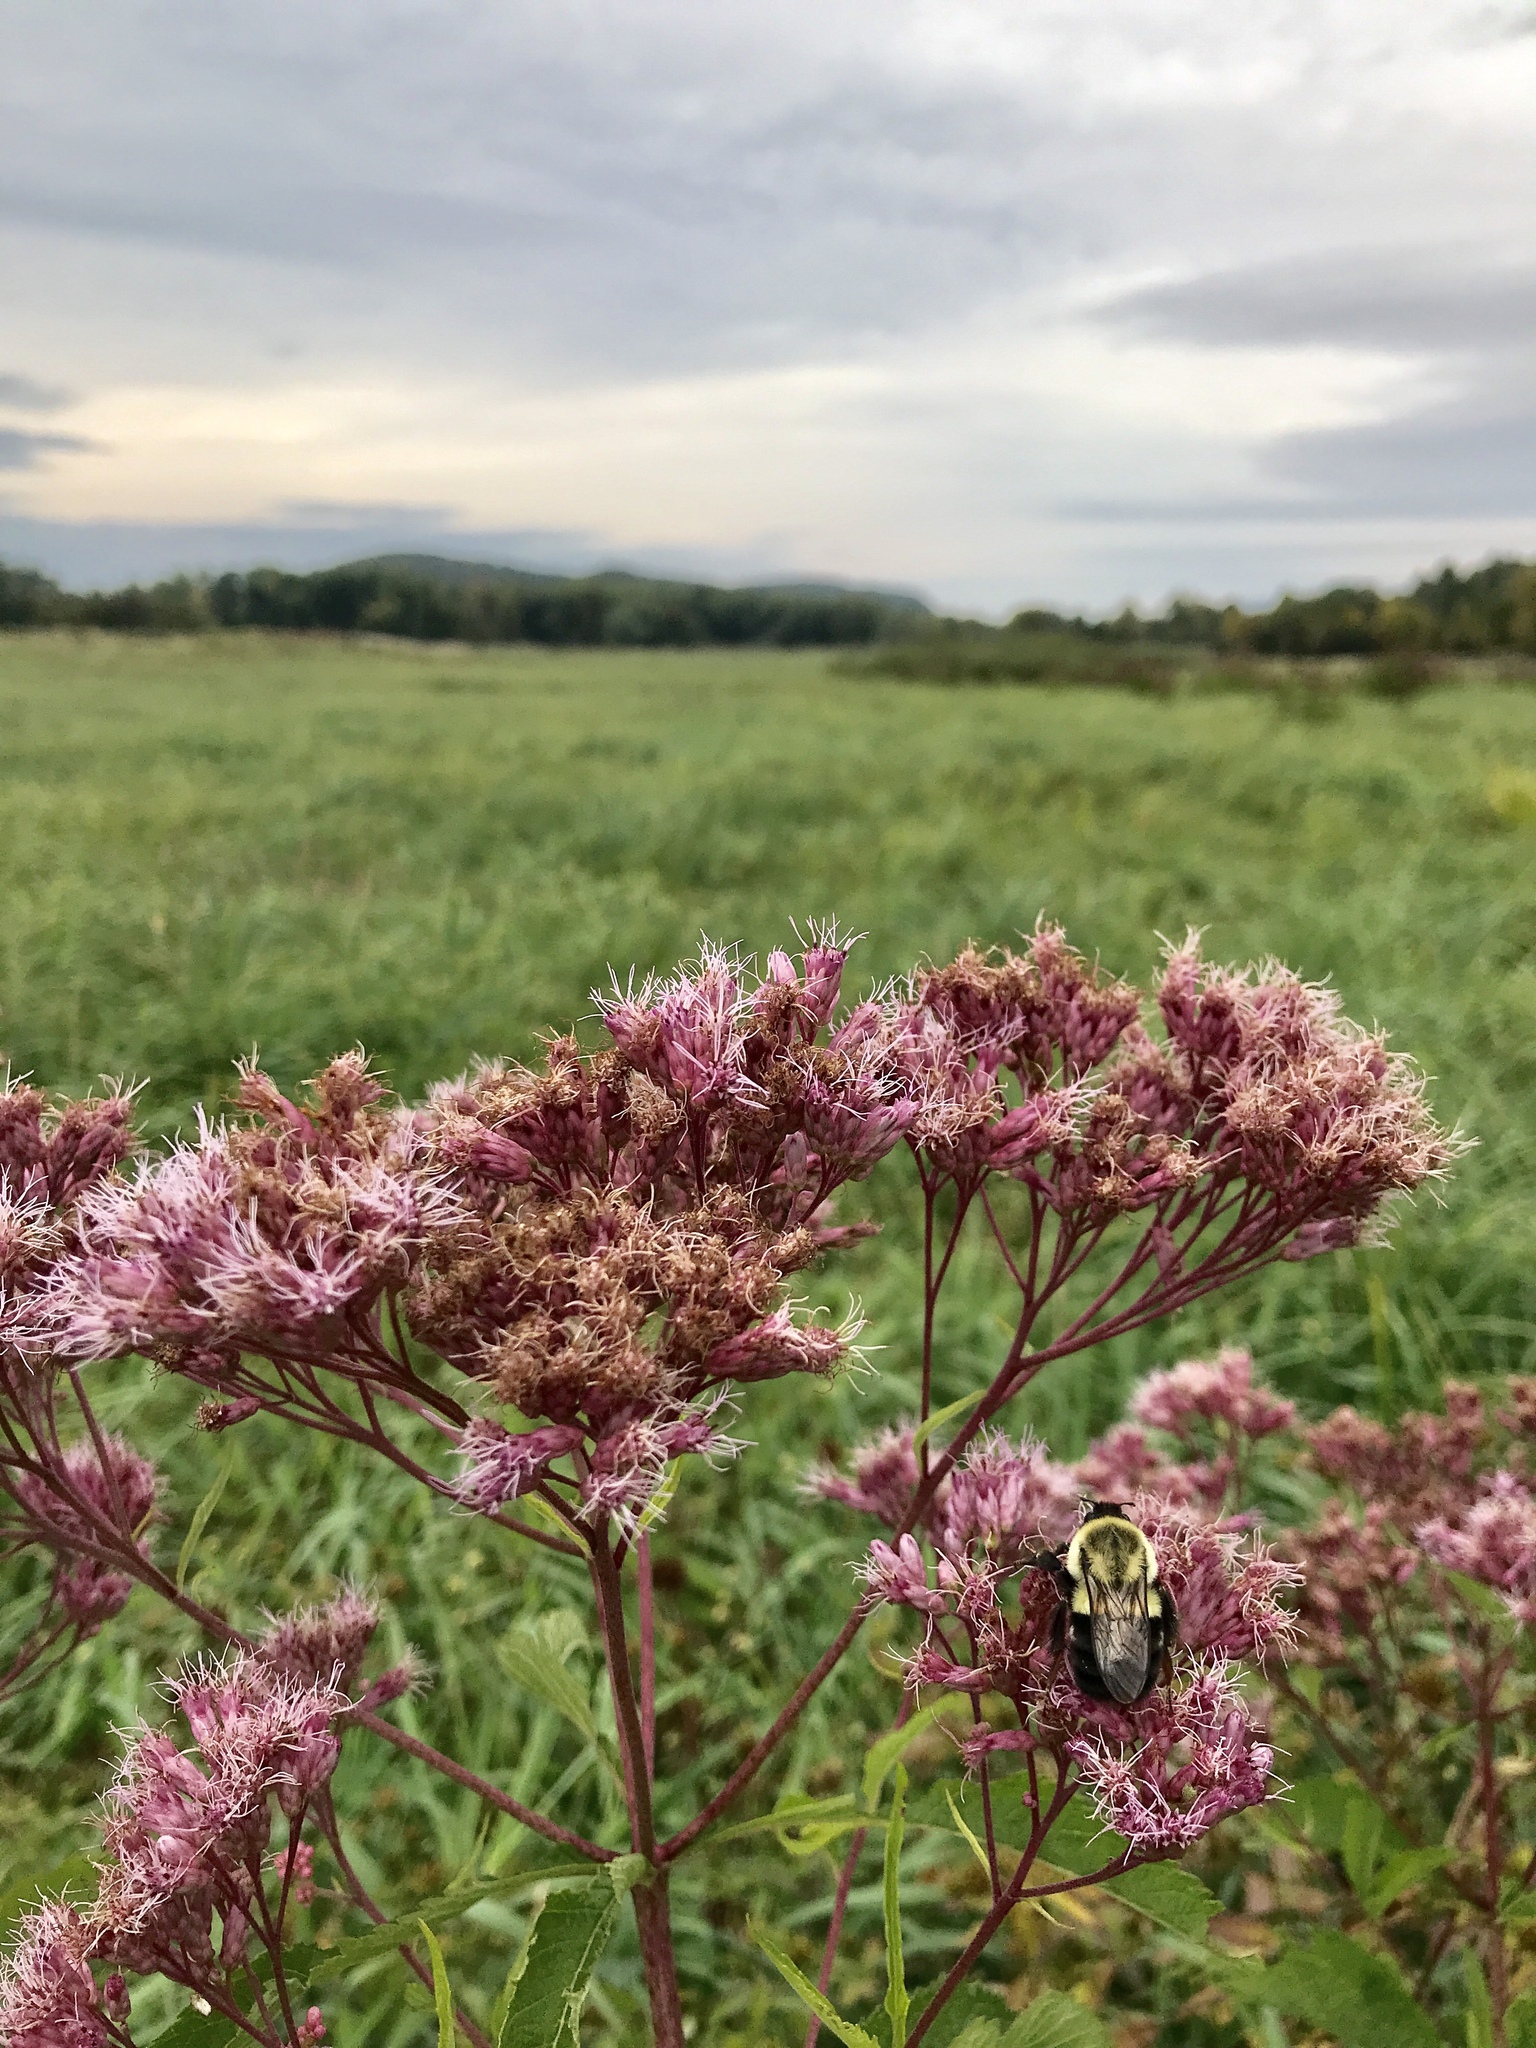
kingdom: Animalia
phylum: Arthropoda
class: Insecta
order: Hymenoptera
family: Apidae
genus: Bombus
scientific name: Bombus impatiens
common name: Common eastern bumble bee
